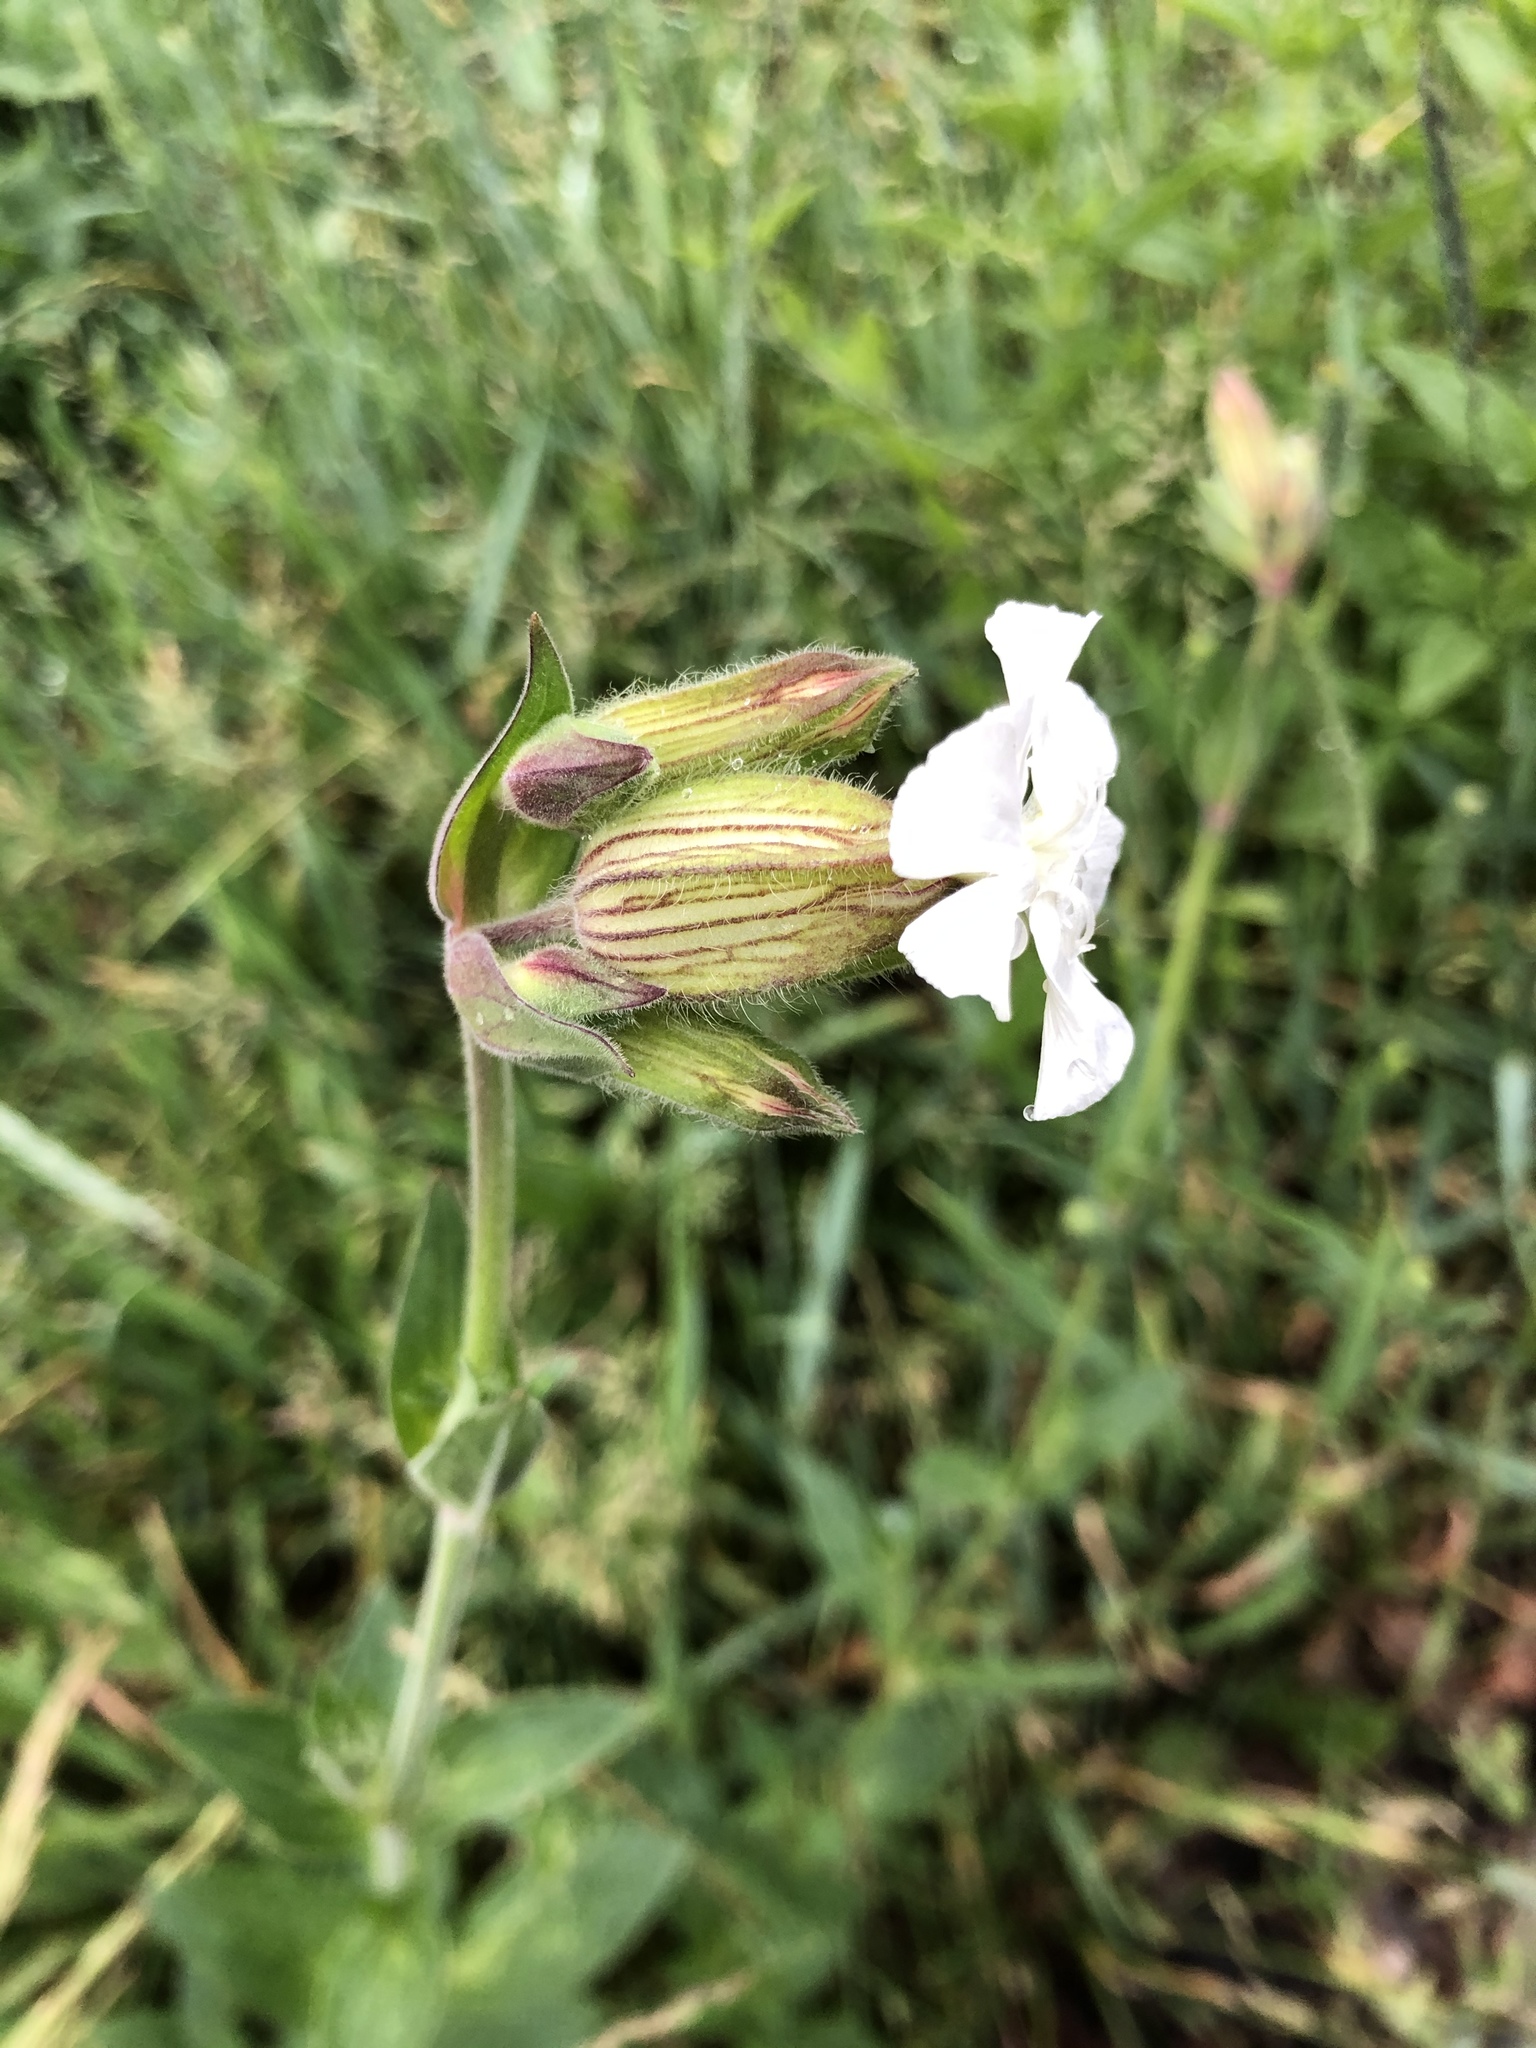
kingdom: Plantae
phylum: Tracheophyta
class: Magnoliopsida
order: Caryophyllales
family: Caryophyllaceae
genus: Silene
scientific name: Silene latifolia
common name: White campion
